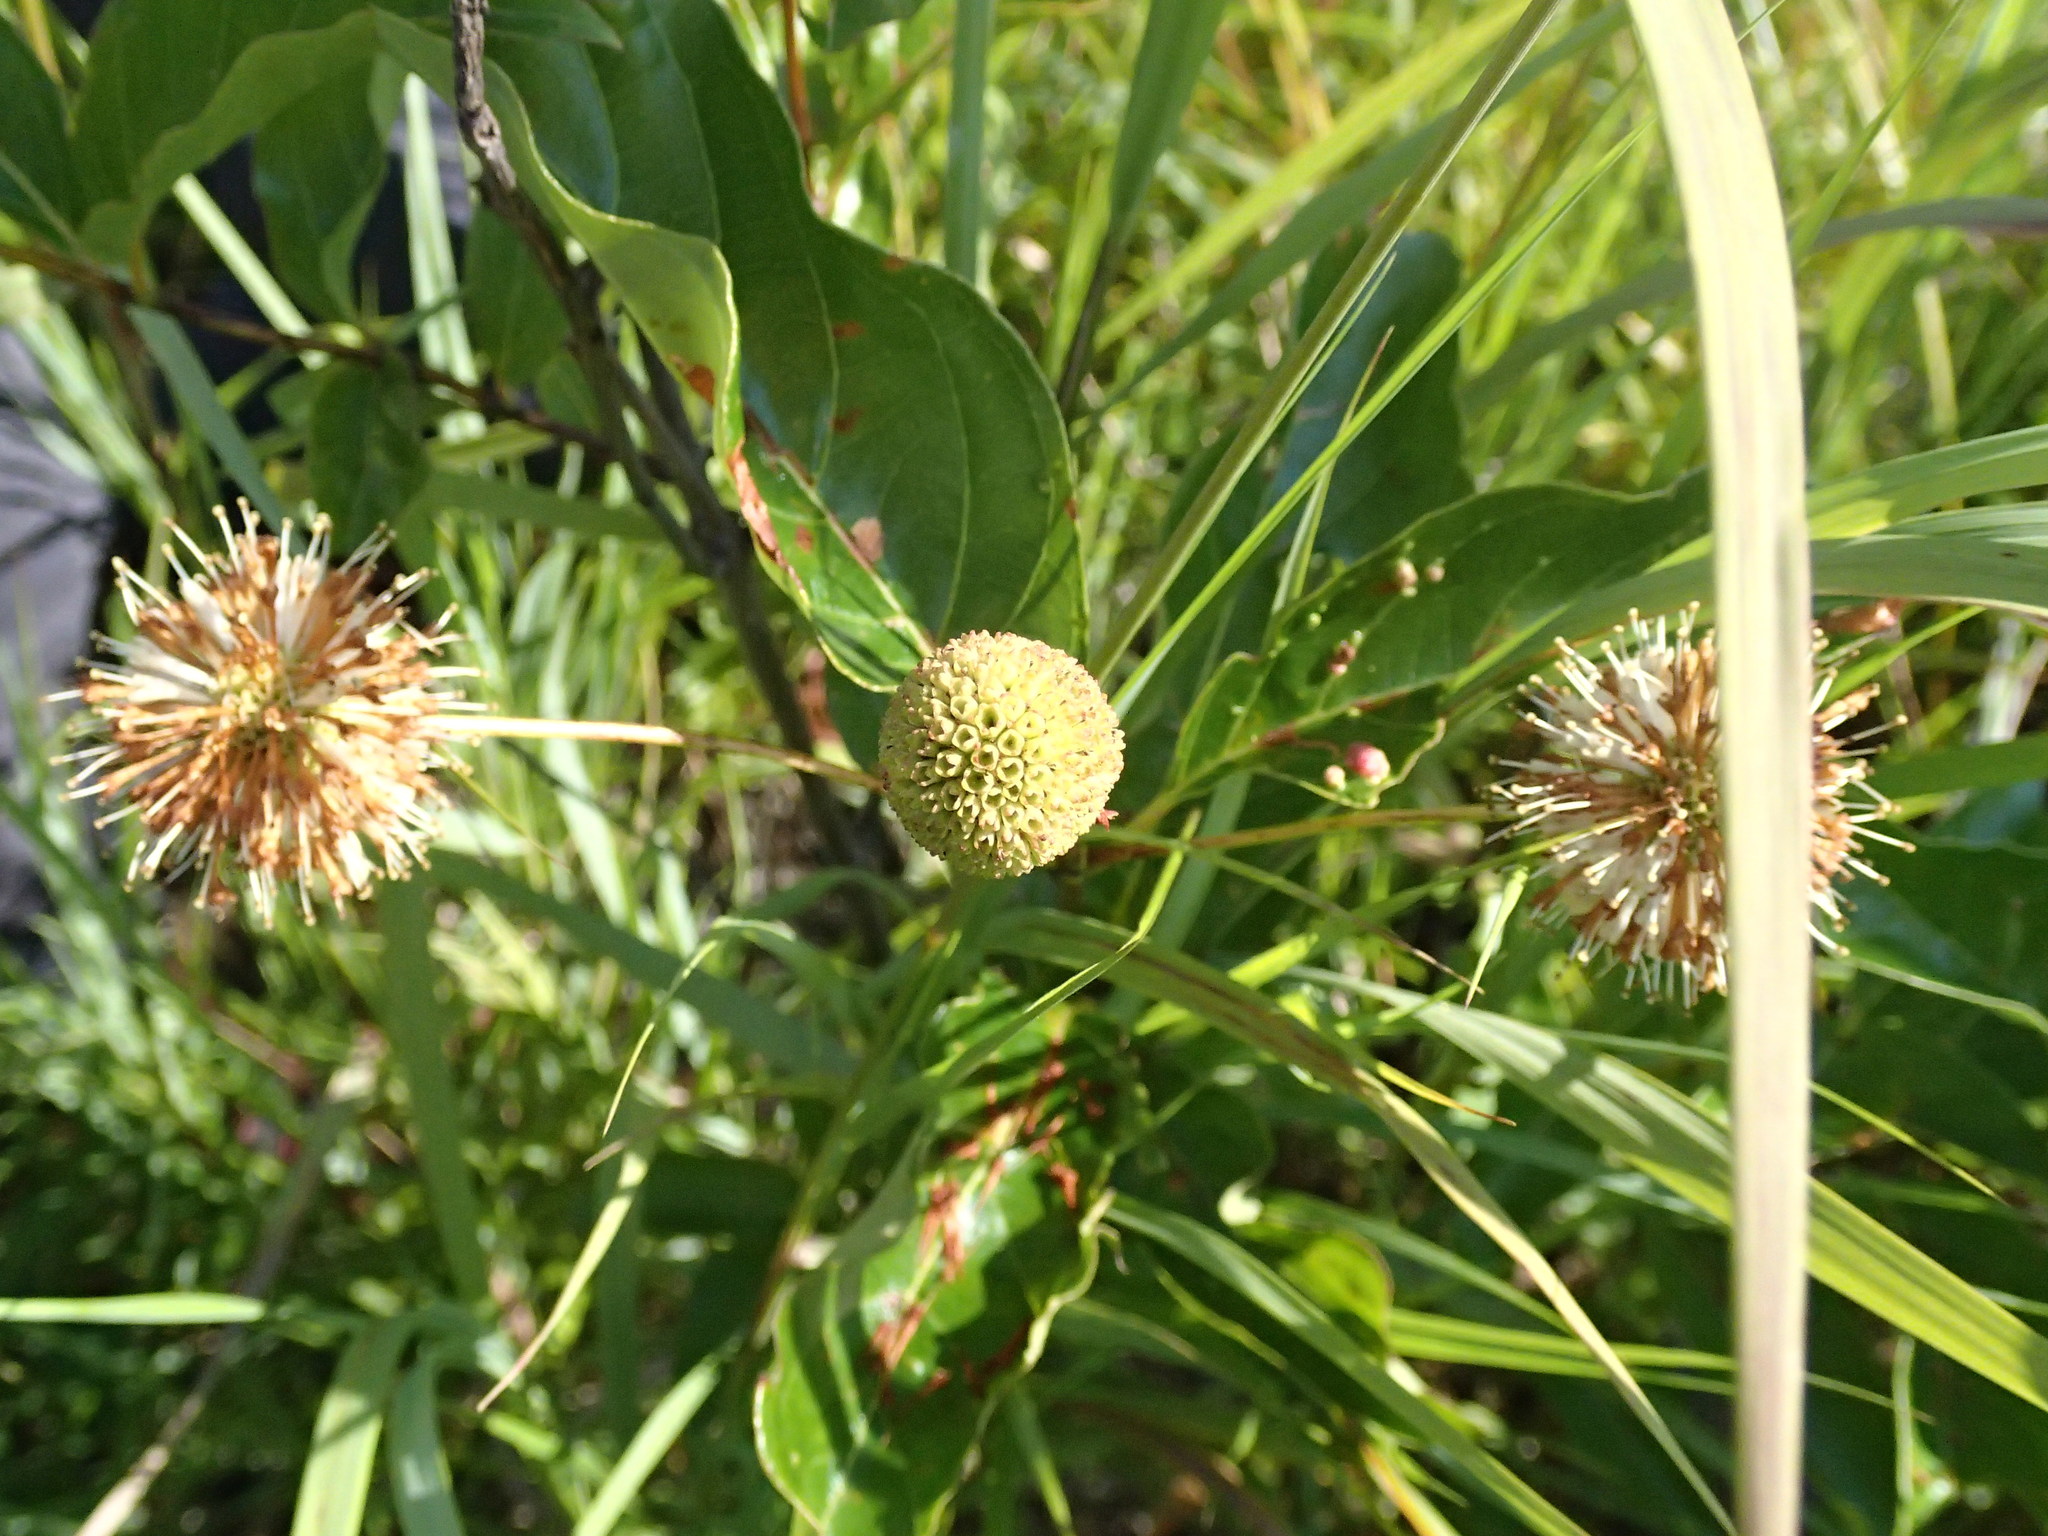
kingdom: Plantae
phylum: Tracheophyta
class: Magnoliopsida
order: Gentianales
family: Rubiaceae
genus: Cephalanthus
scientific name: Cephalanthus occidentalis
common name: Button-willow
